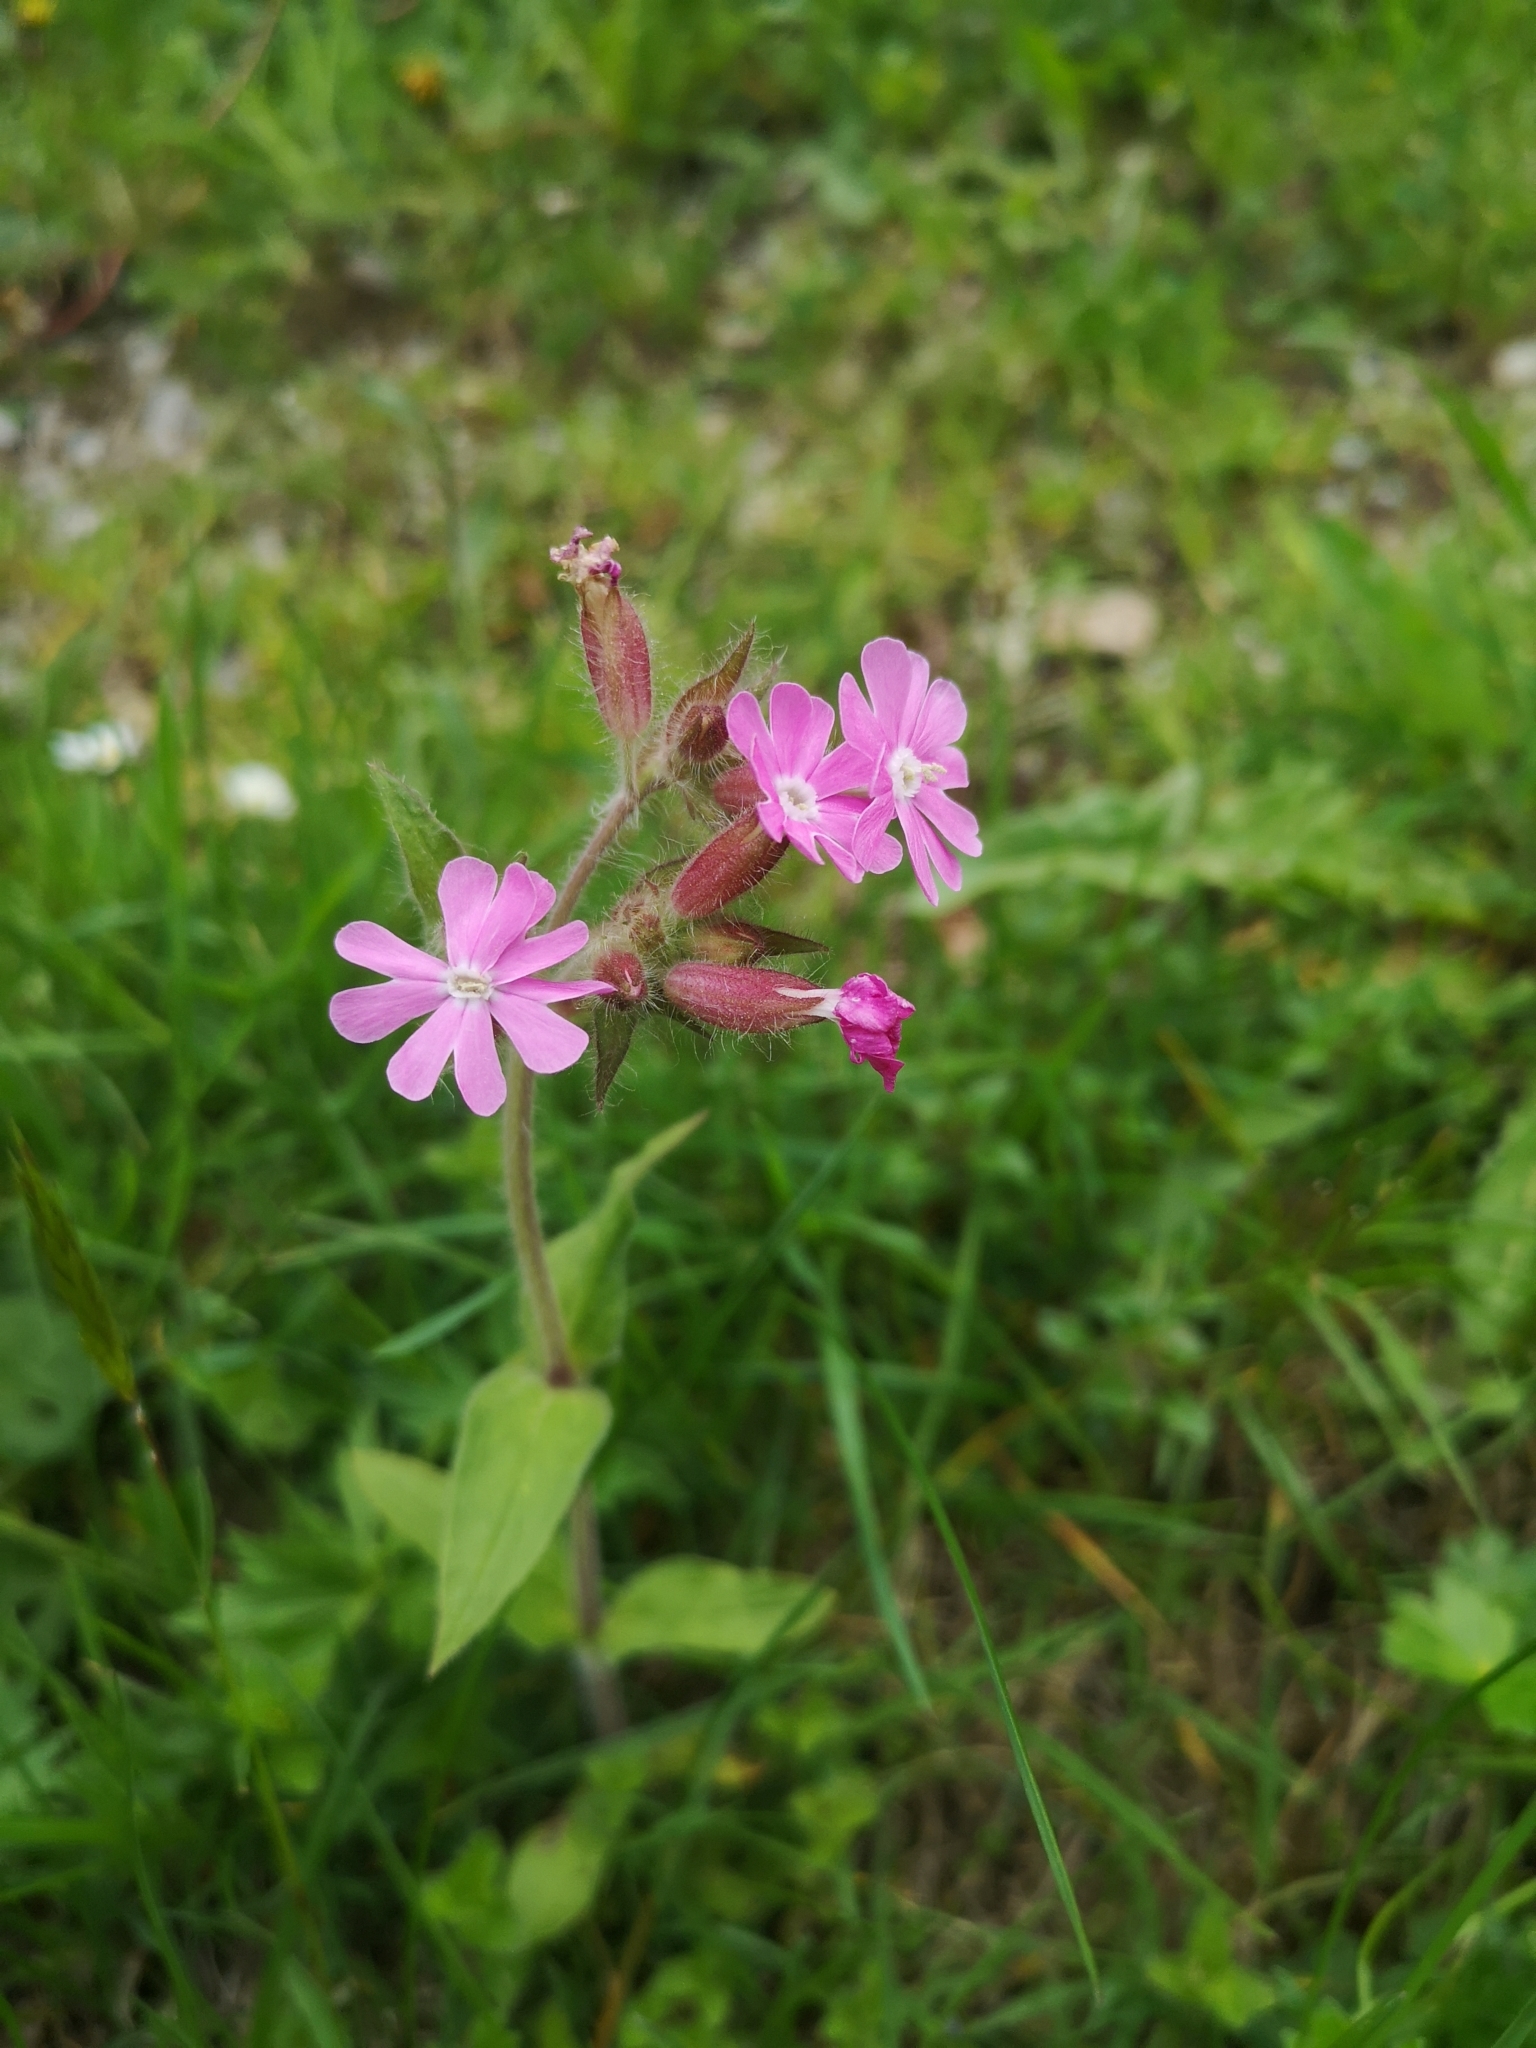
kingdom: Plantae
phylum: Tracheophyta
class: Magnoliopsida
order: Caryophyllales
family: Caryophyllaceae
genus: Silene
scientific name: Silene dioica
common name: Red campion
